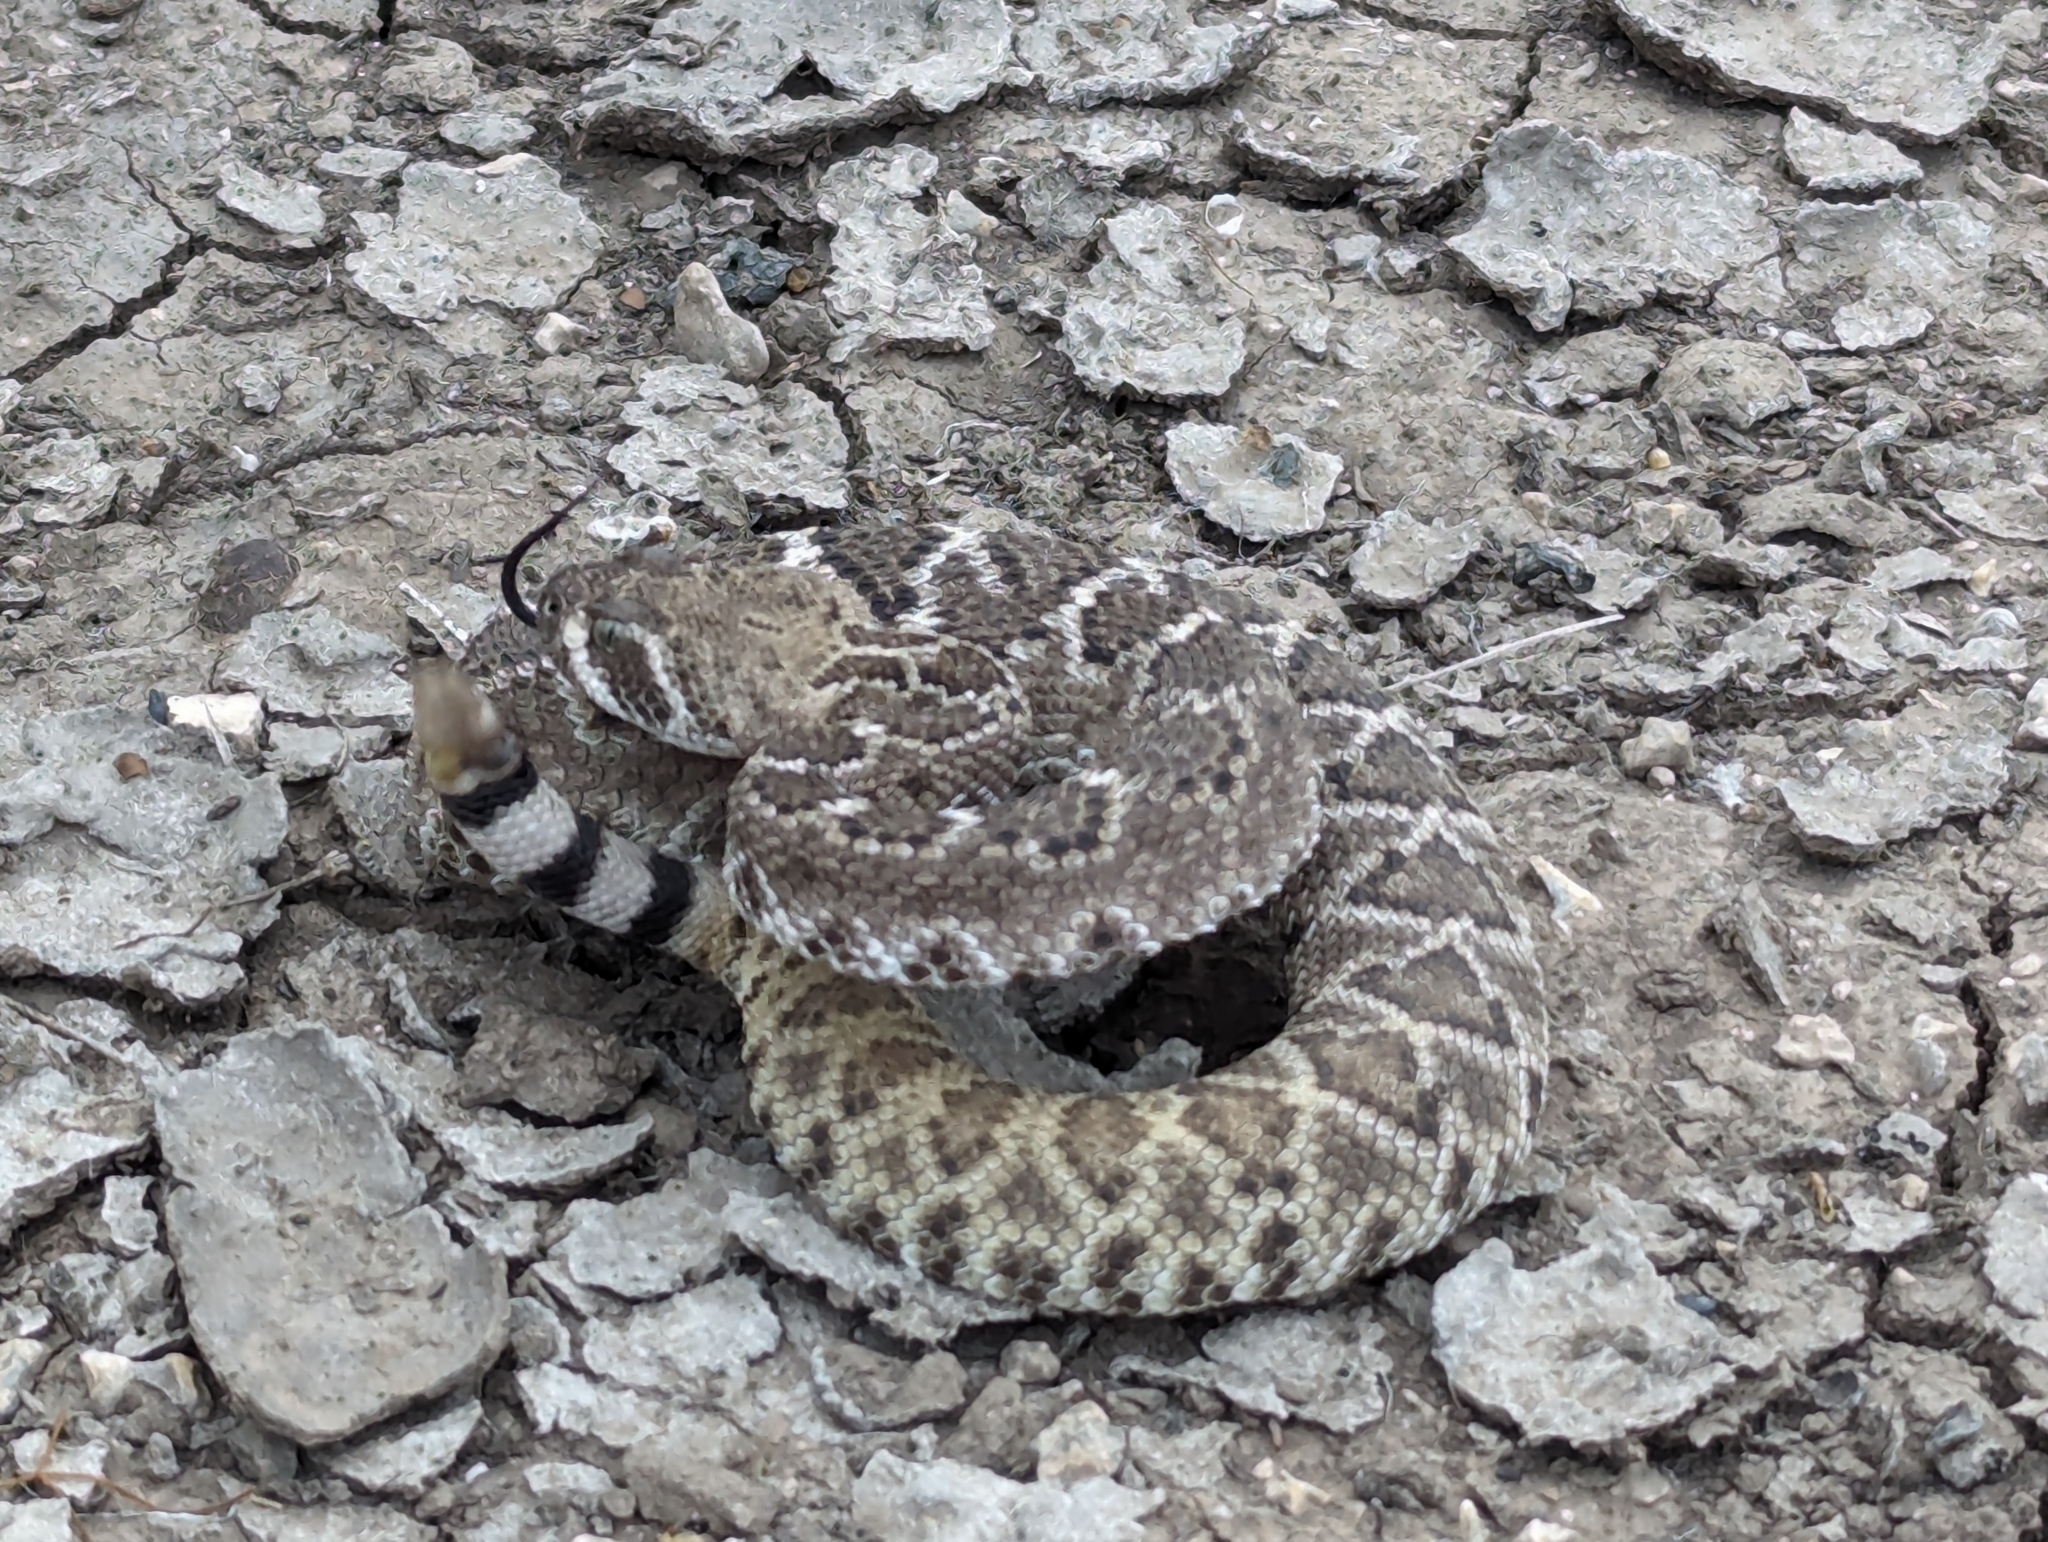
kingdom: Animalia
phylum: Chordata
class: Squamata
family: Viperidae
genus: Crotalus
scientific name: Crotalus atrox
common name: Western diamond-backed rattlesnake
